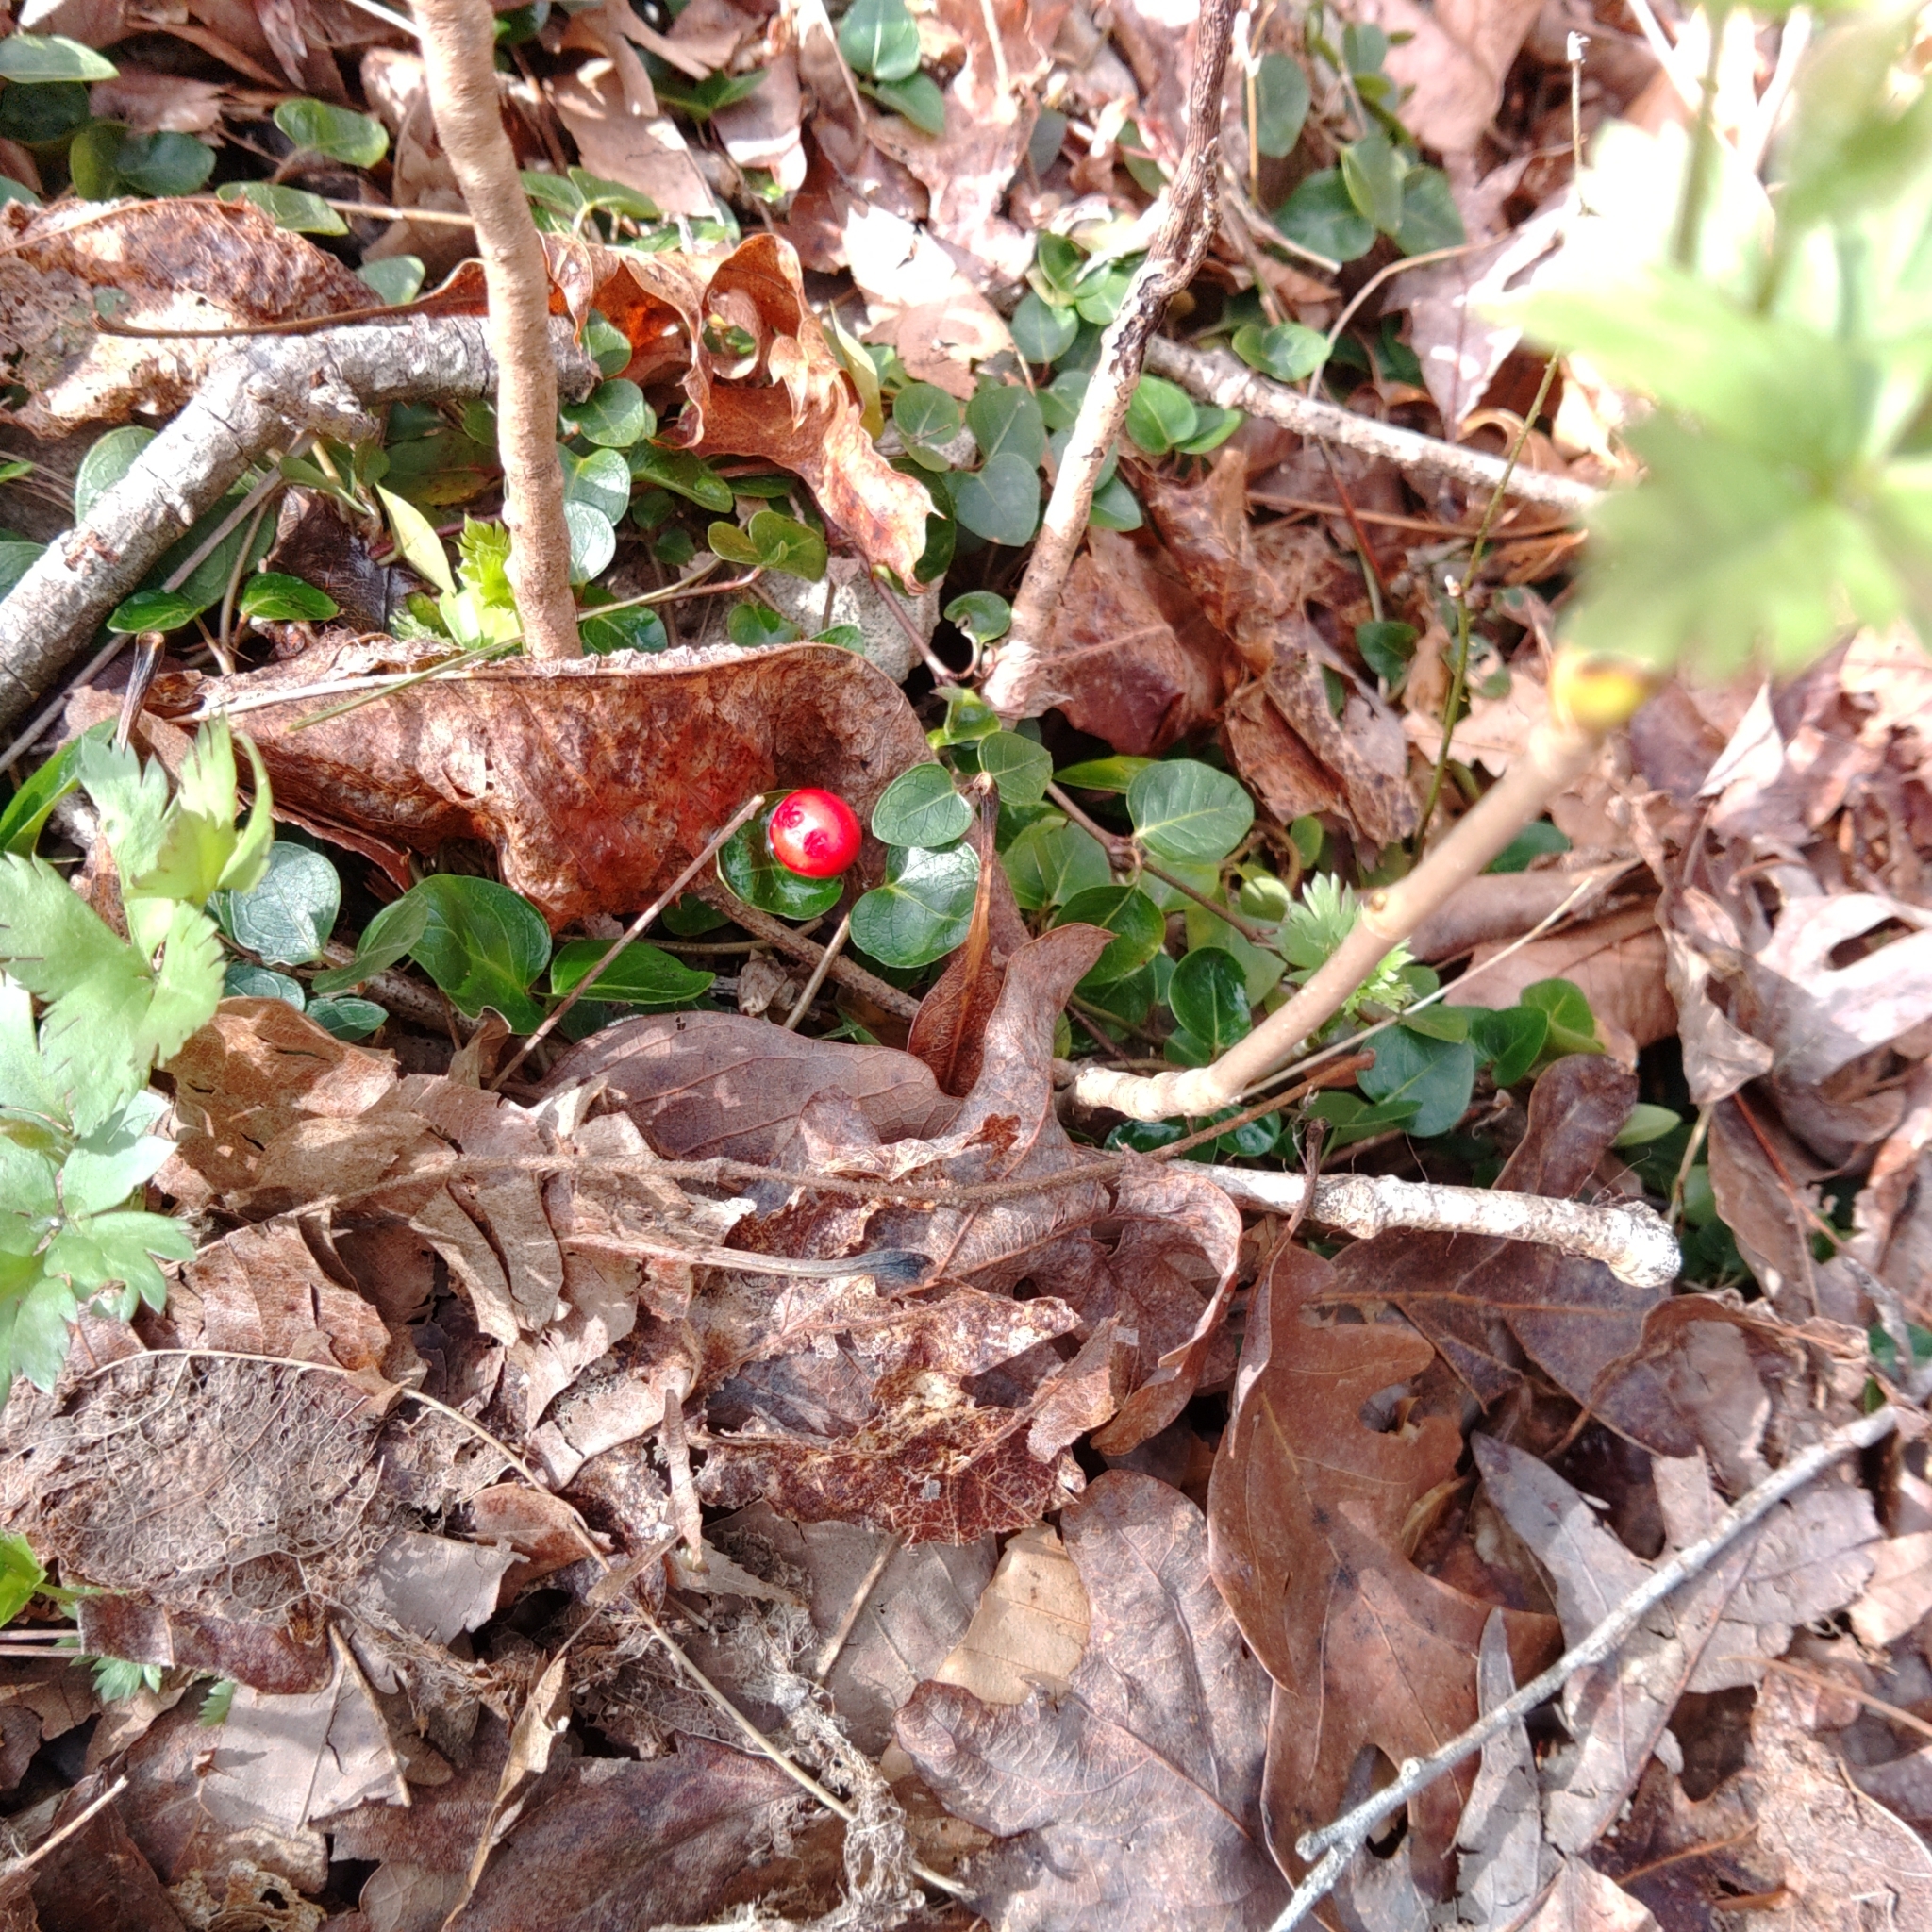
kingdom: Plantae
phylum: Tracheophyta
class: Magnoliopsida
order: Gentianales
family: Rubiaceae
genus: Mitchella
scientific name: Mitchella repens
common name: Partridge-berry
